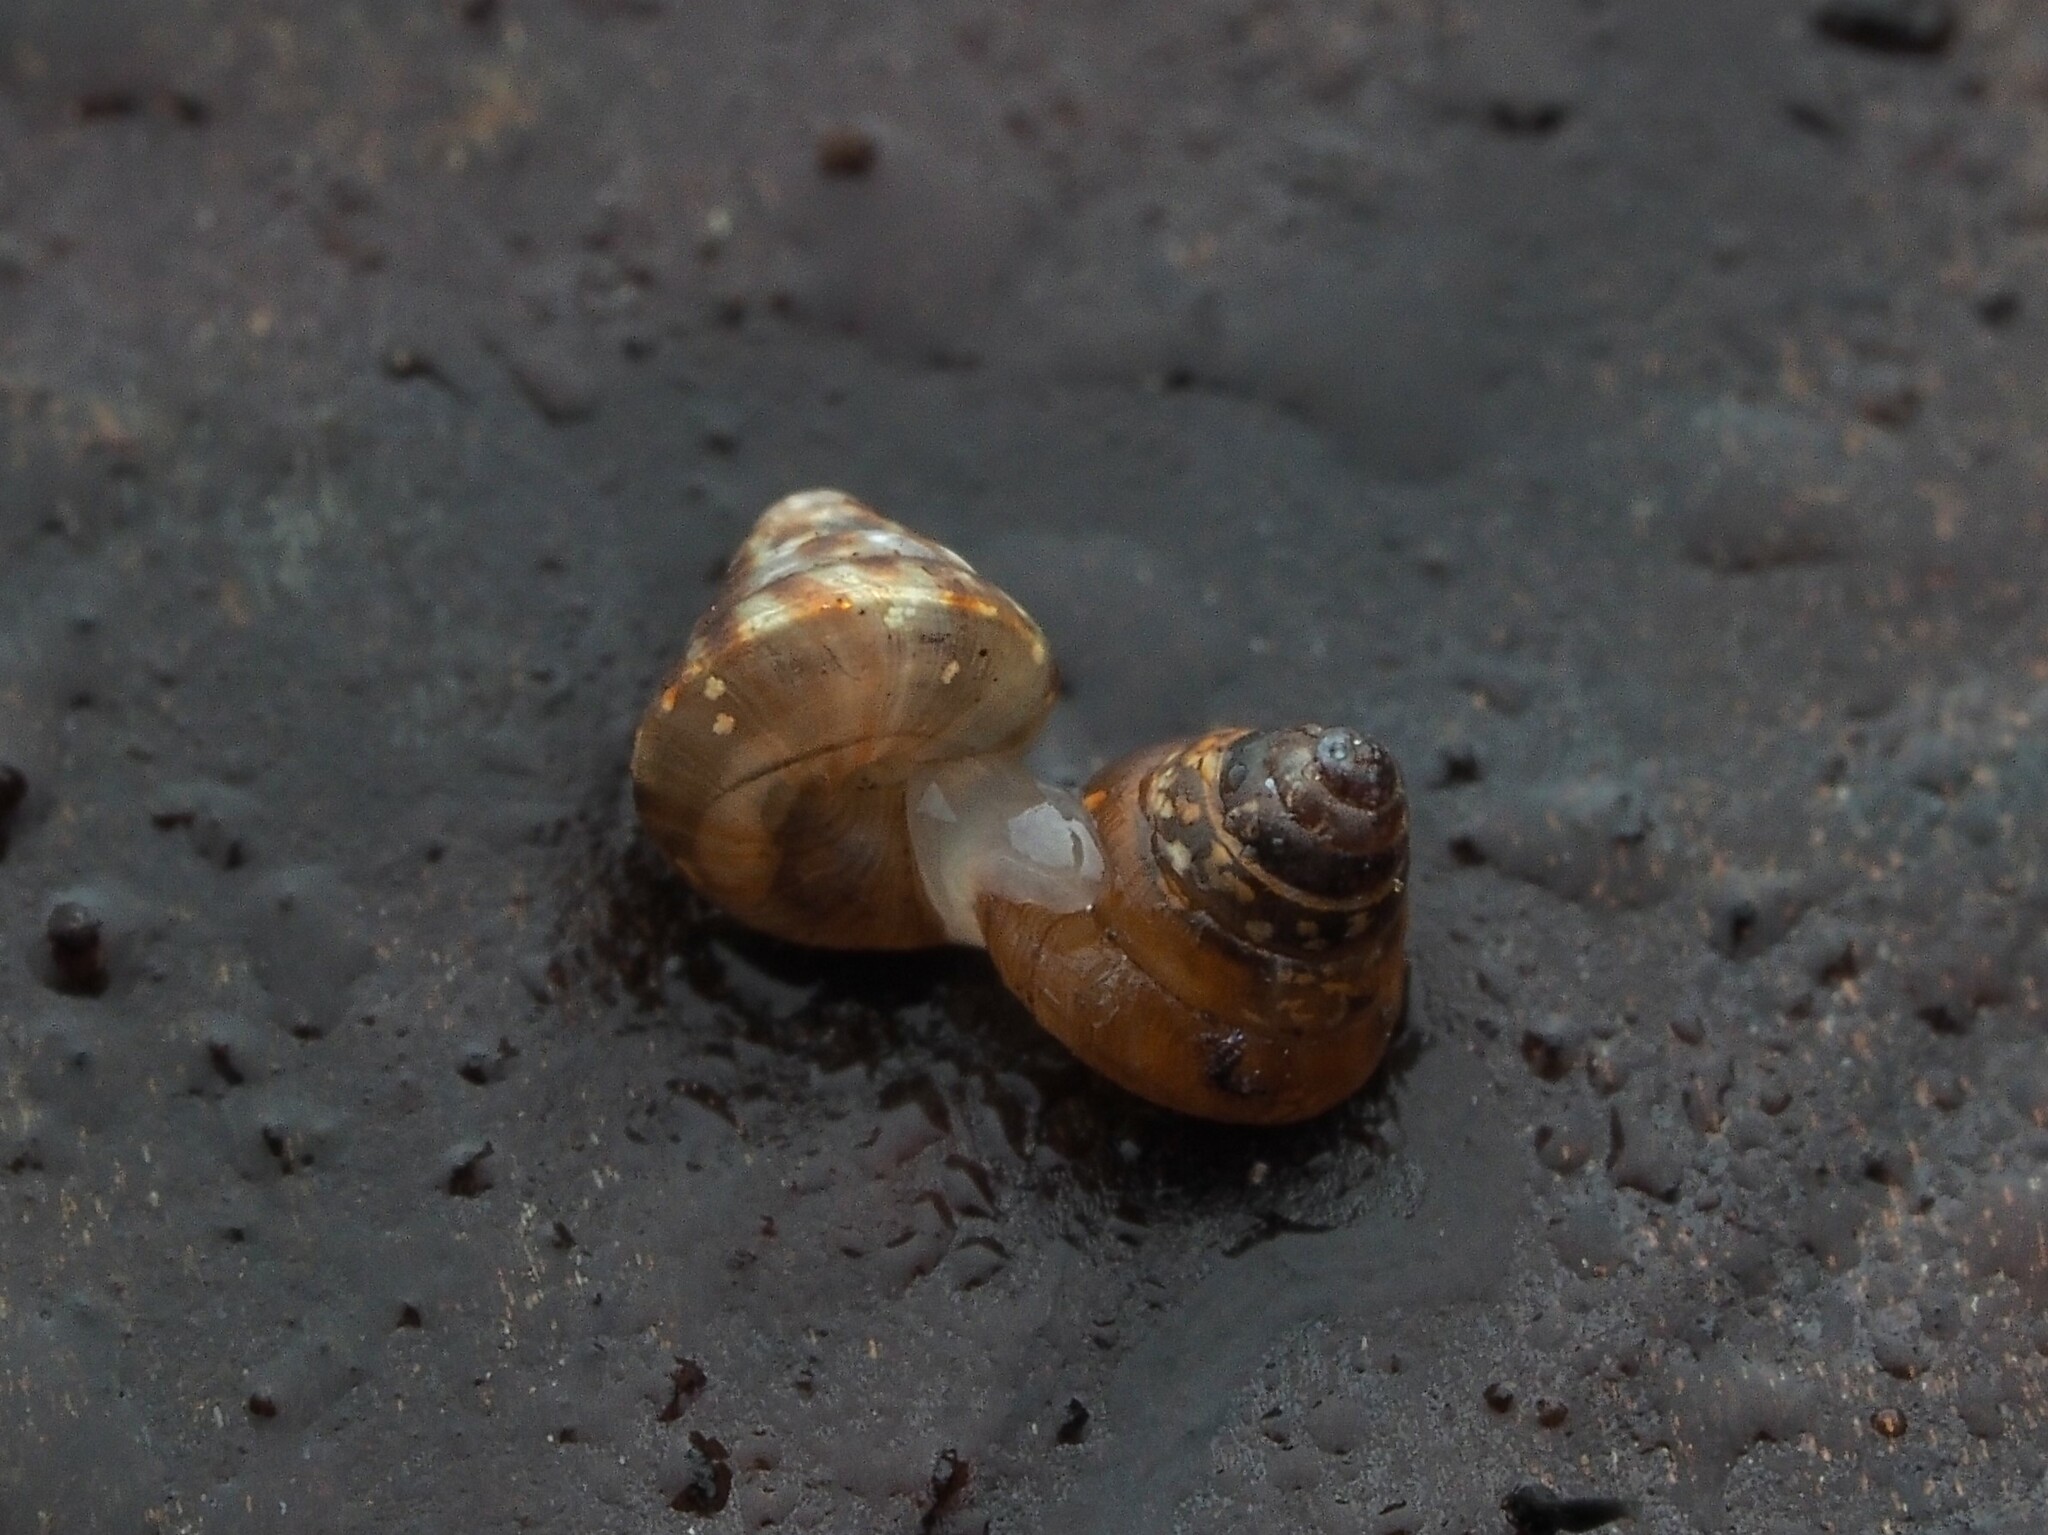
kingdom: Animalia
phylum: Mollusca
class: Gastropoda
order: Stylommatophora
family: Punctidae
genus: Phrixgnathus
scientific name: Phrixgnathus erigone
